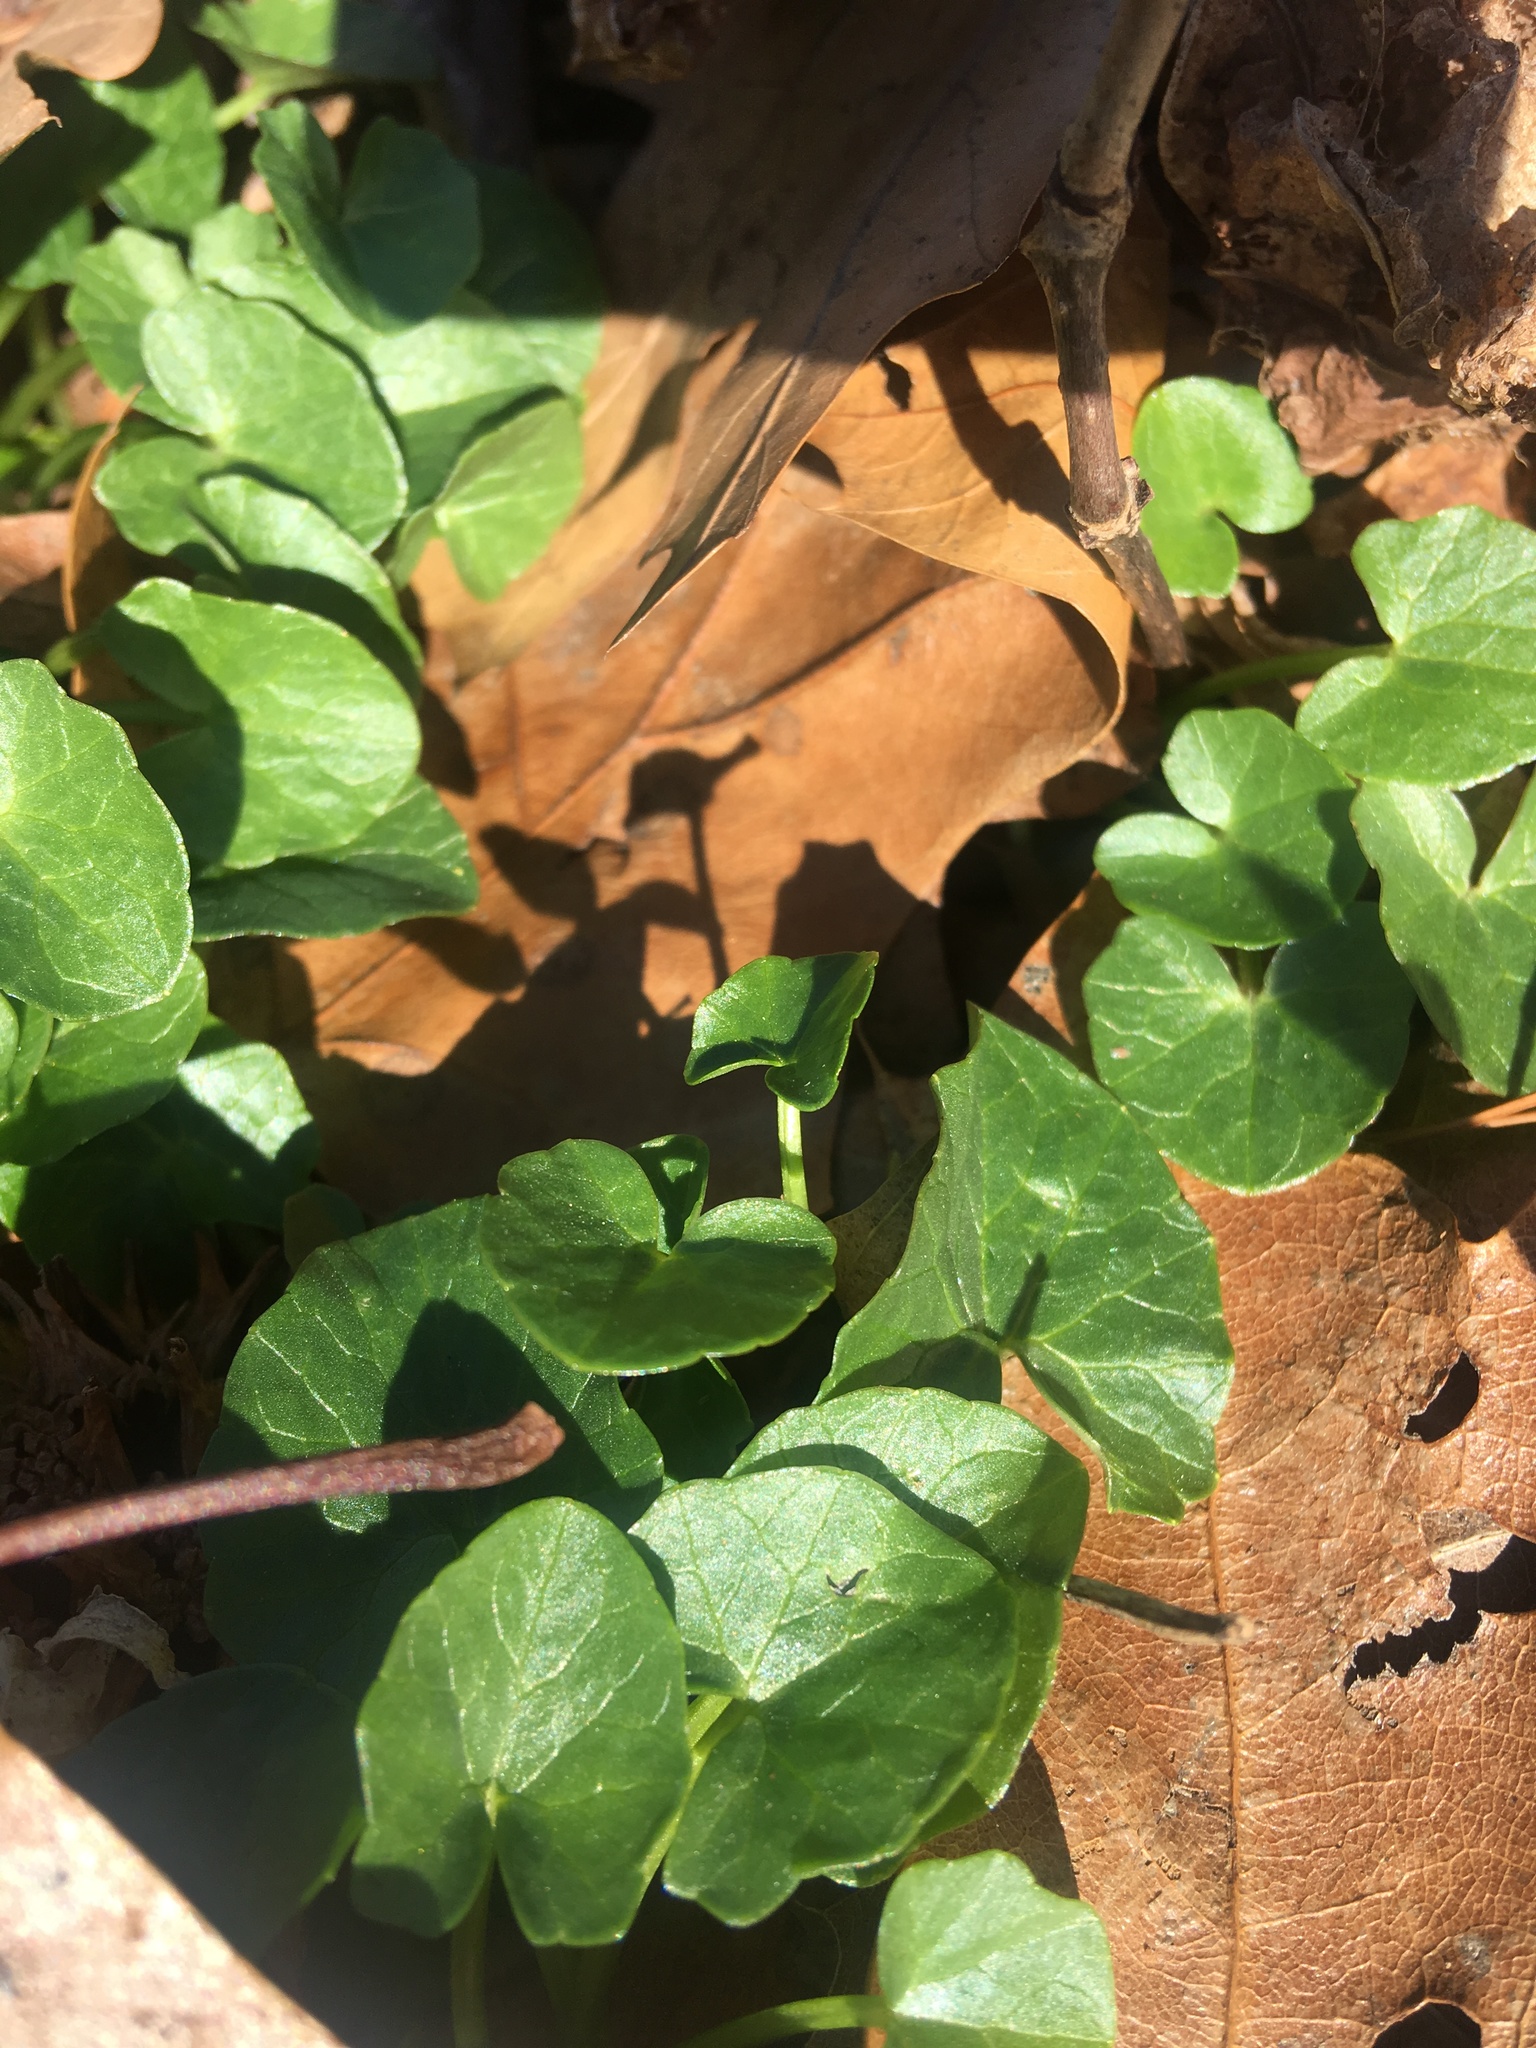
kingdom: Plantae
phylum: Tracheophyta
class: Magnoliopsida
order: Ranunculales
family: Ranunculaceae
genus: Ficaria
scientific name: Ficaria verna
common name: Lesser celandine
